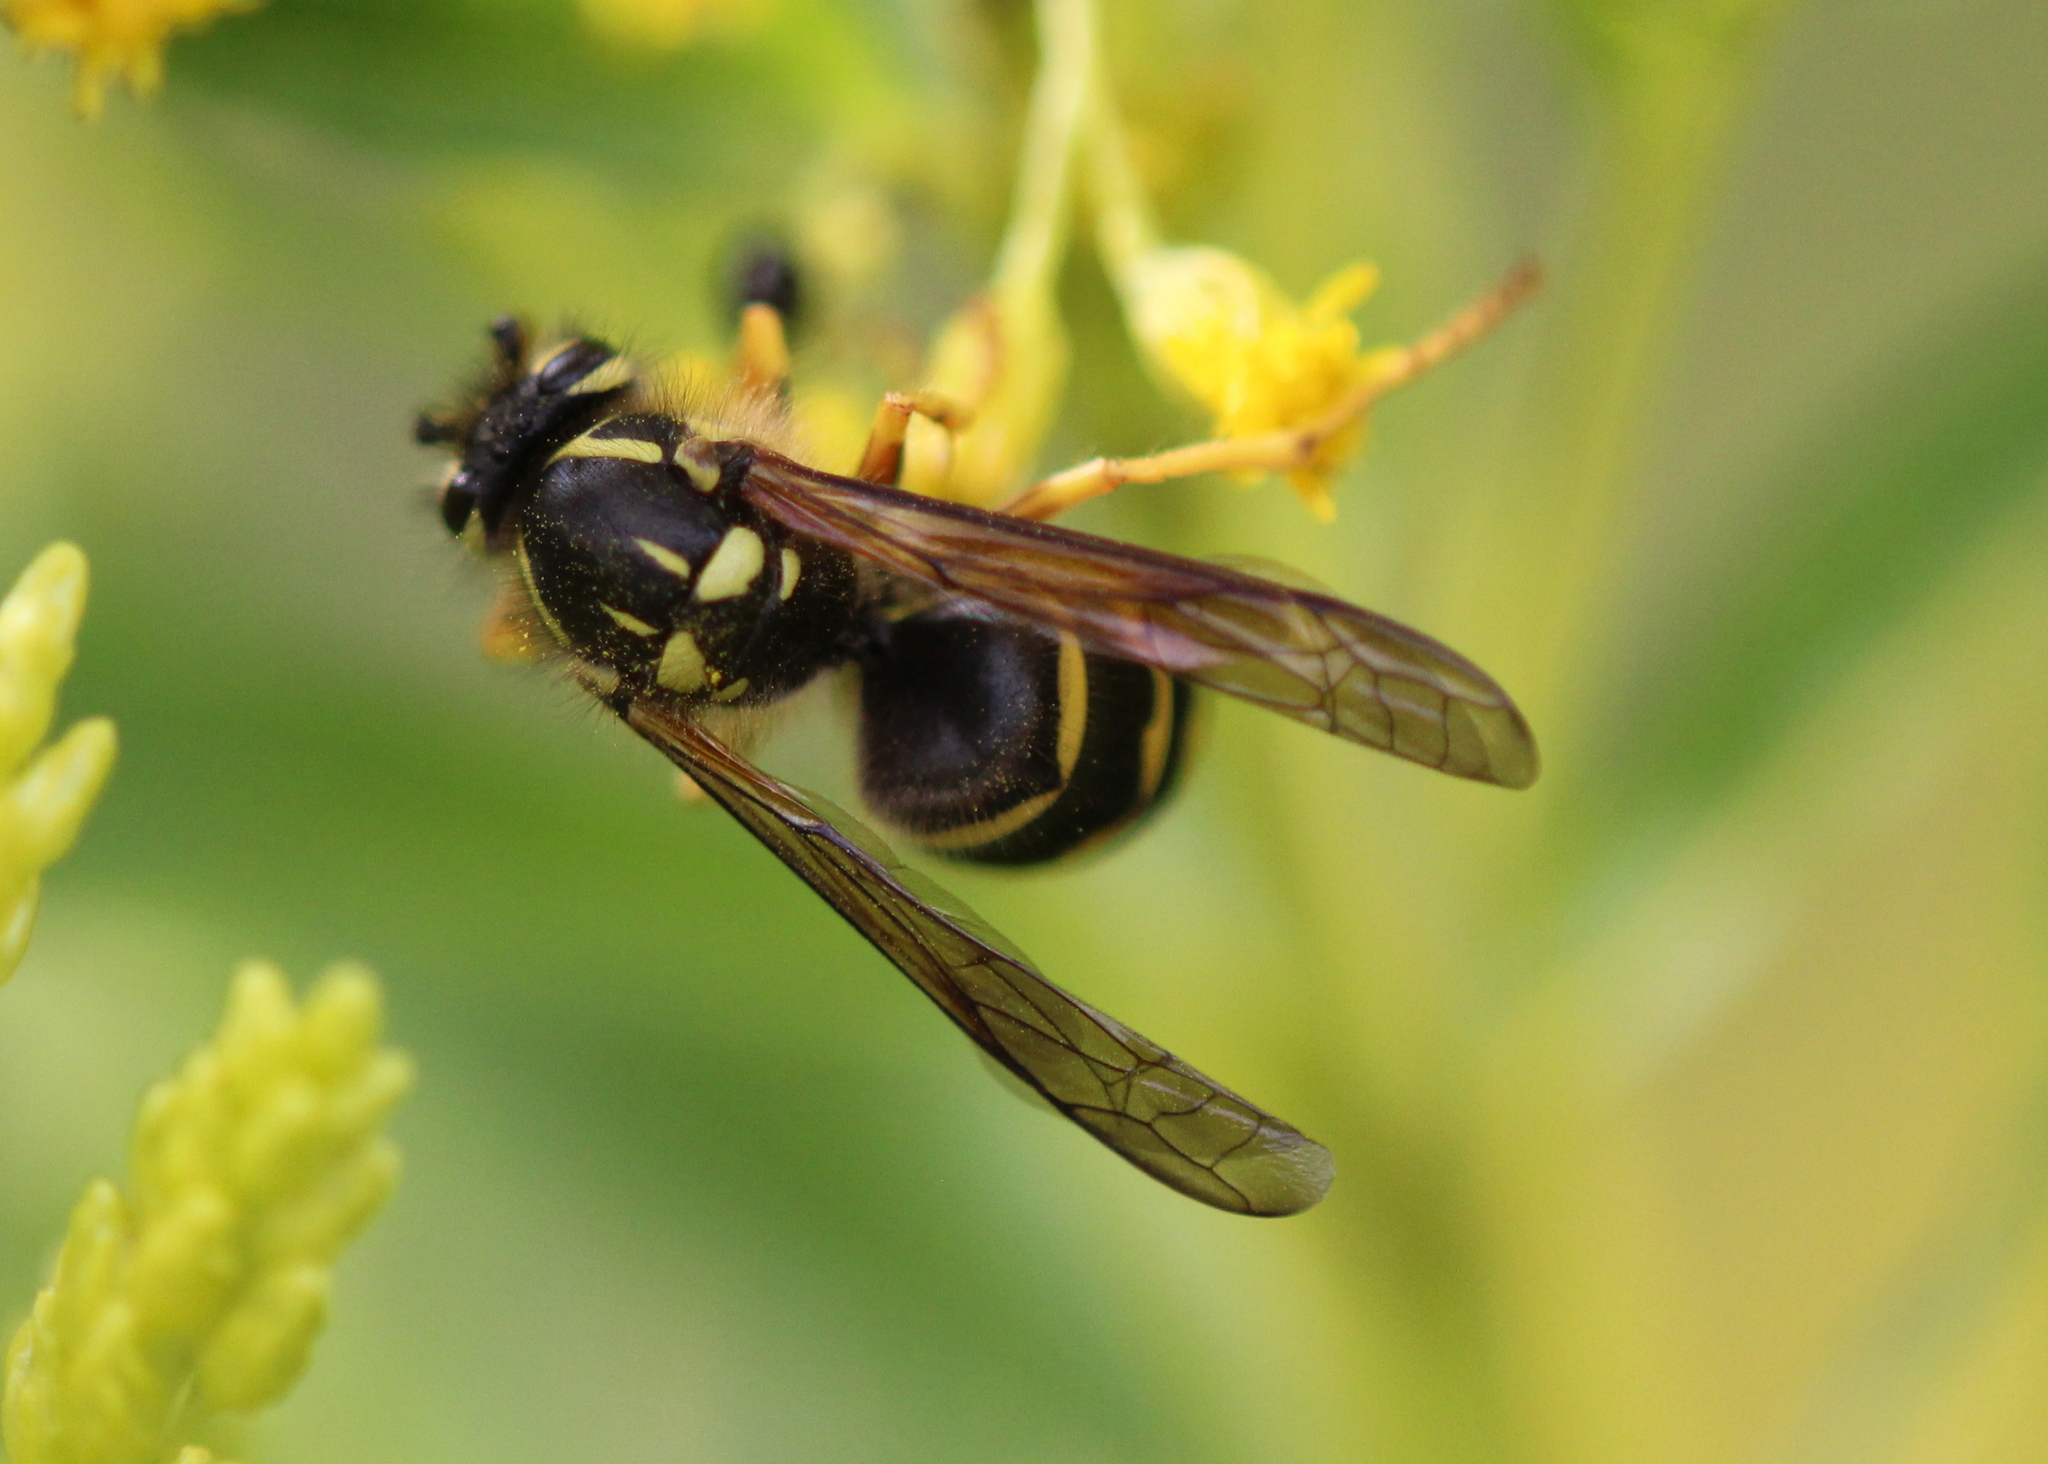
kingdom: Animalia
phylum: Arthropoda
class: Insecta
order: Hymenoptera
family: Vespidae
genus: Dolichovespula
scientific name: Dolichovespula arenaria
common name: Aerial yellowjacket
